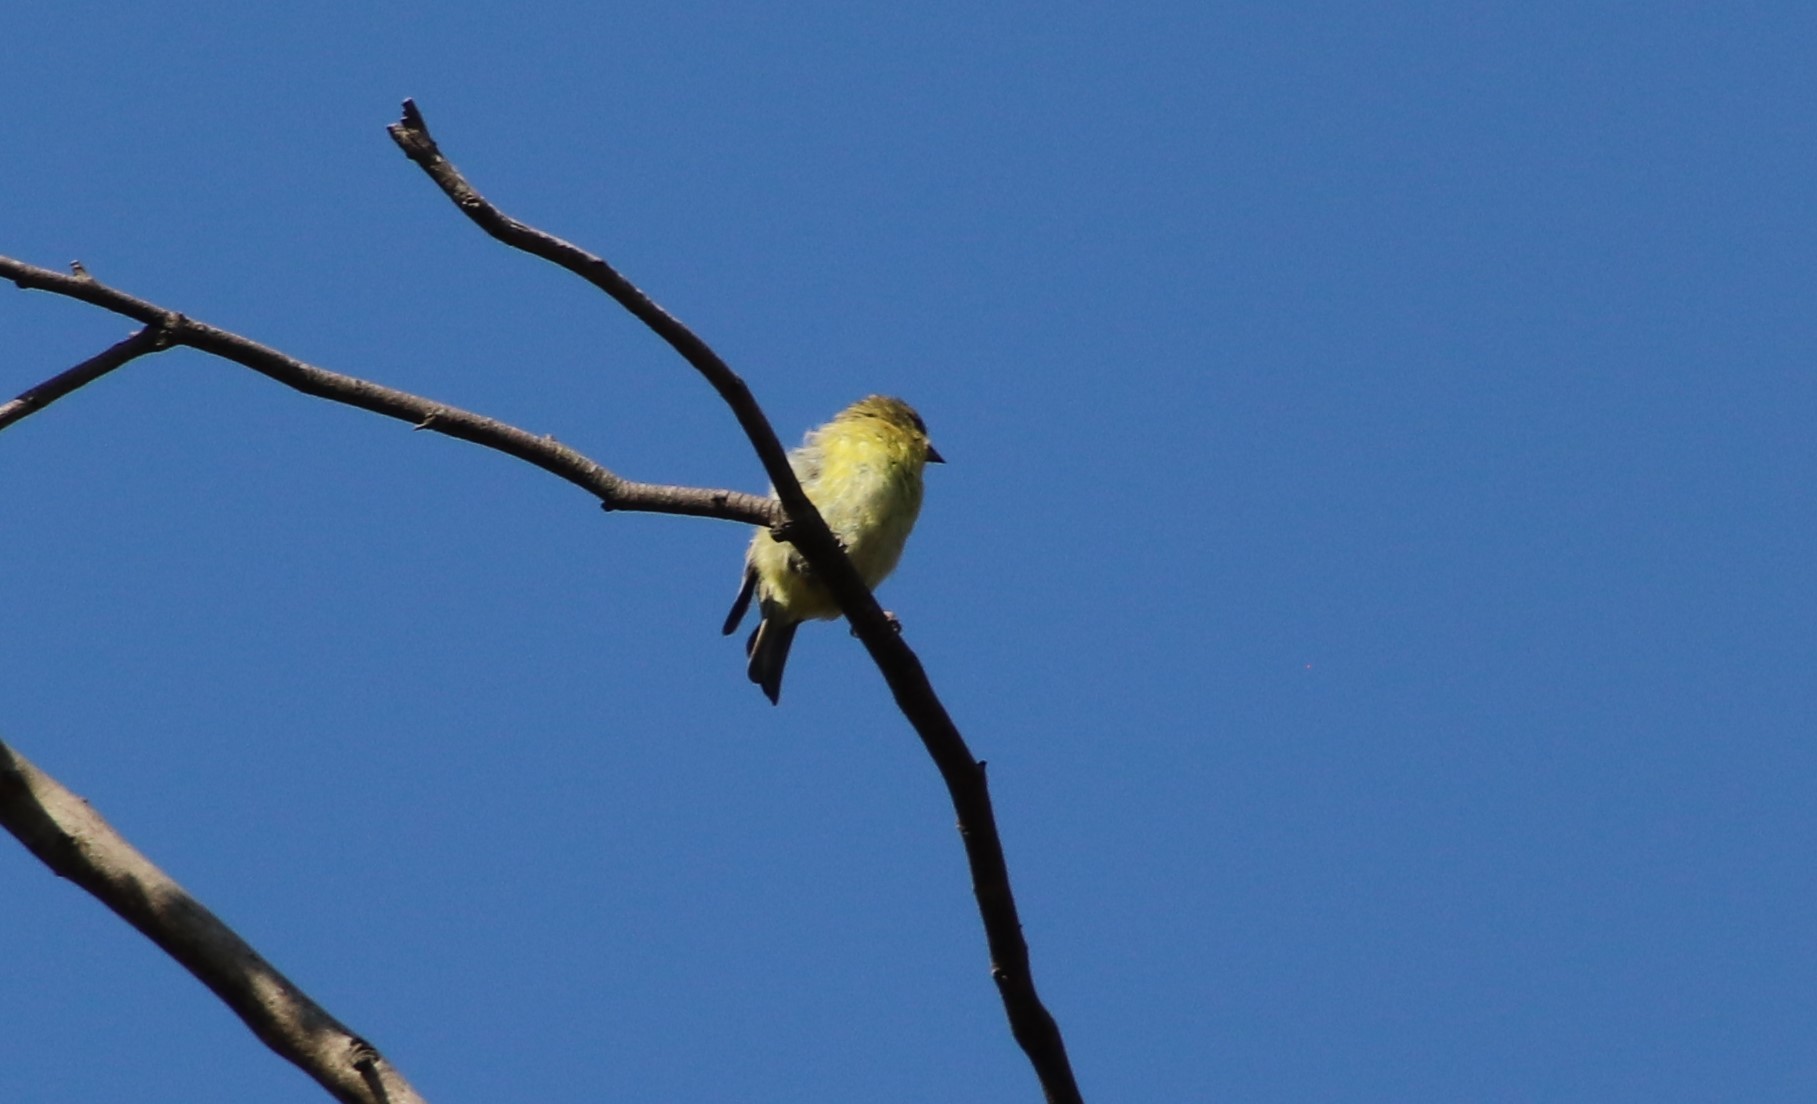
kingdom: Animalia
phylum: Chordata
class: Aves
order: Passeriformes
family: Fringillidae
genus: Spinus
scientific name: Spinus psaltria
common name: Lesser goldfinch
